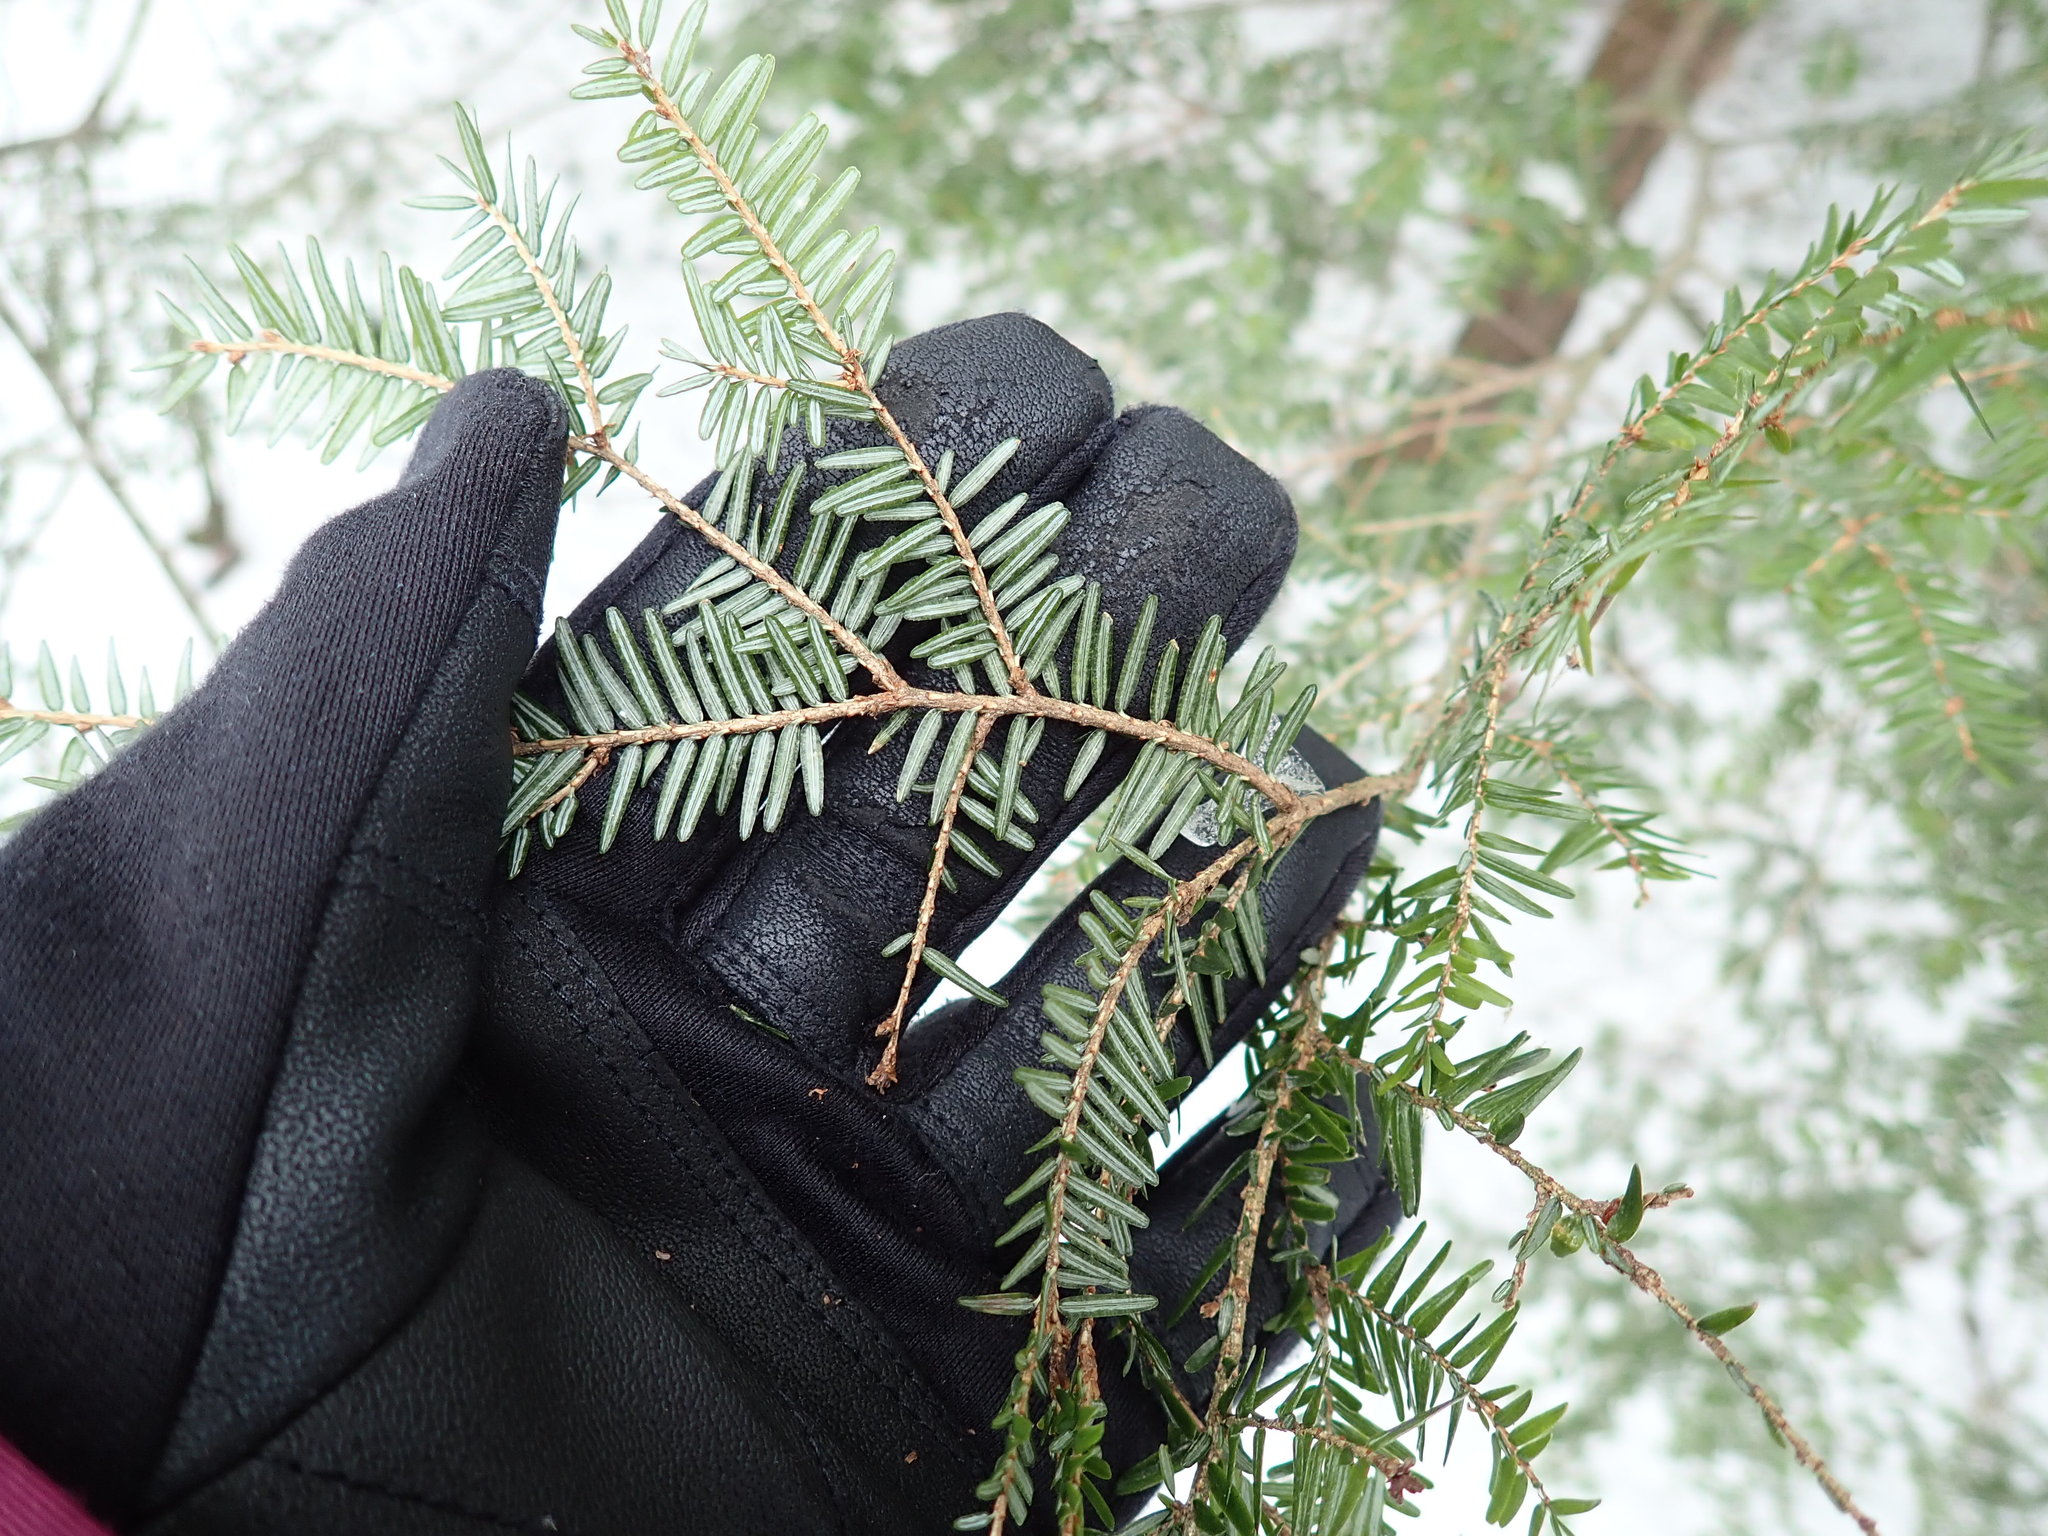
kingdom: Plantae
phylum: Tracheophyta
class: Pinopsida
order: Pinales
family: Pinaceae
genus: Tsuga
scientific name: Tsuga canadensis
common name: Eastern hemlock
